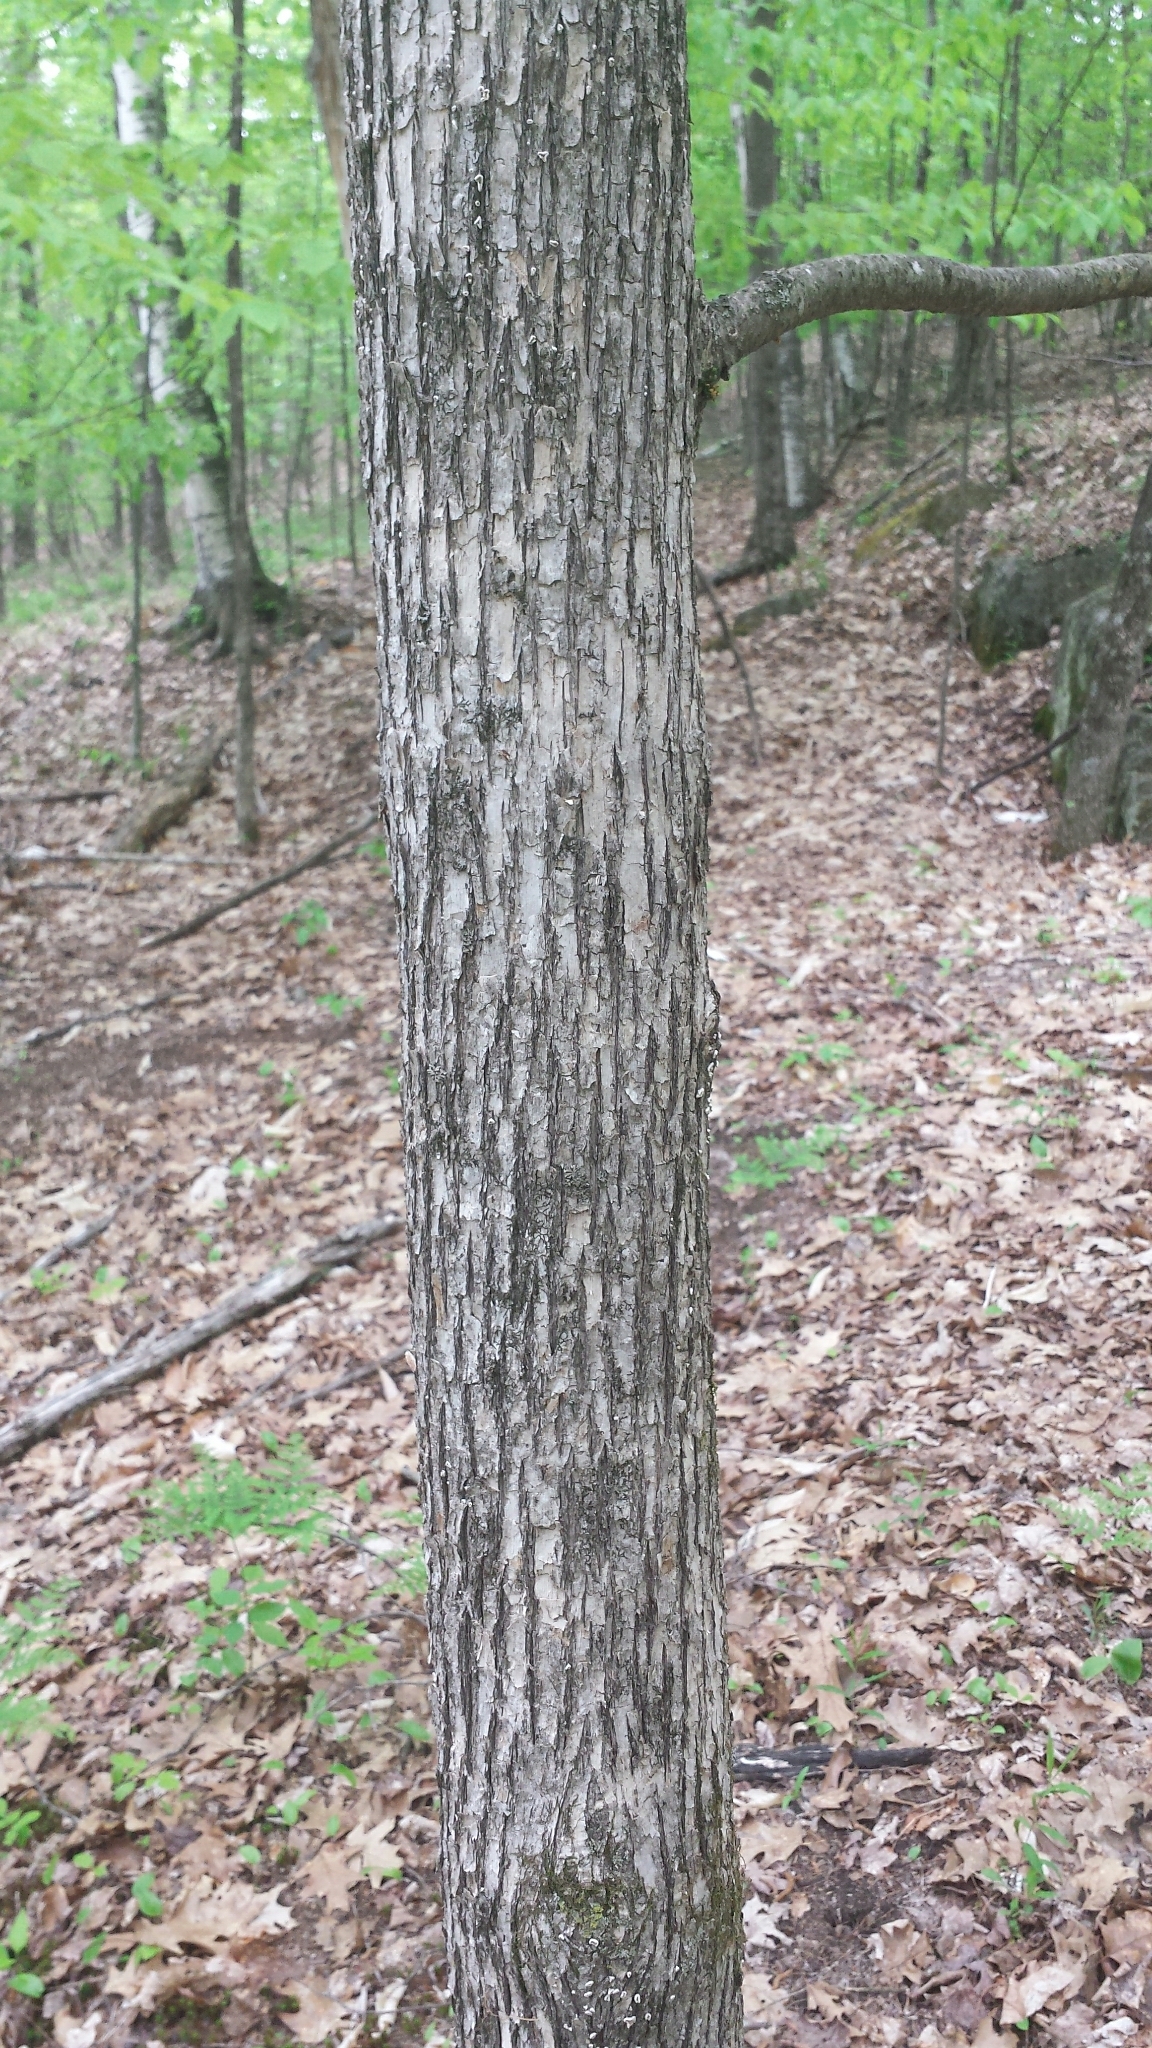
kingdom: Plantae
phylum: Tracheophyta
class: Magnoliopsida
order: Fagales
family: Betulaceae
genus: Ostrya
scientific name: Ostrya virginiana
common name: Ironwood
